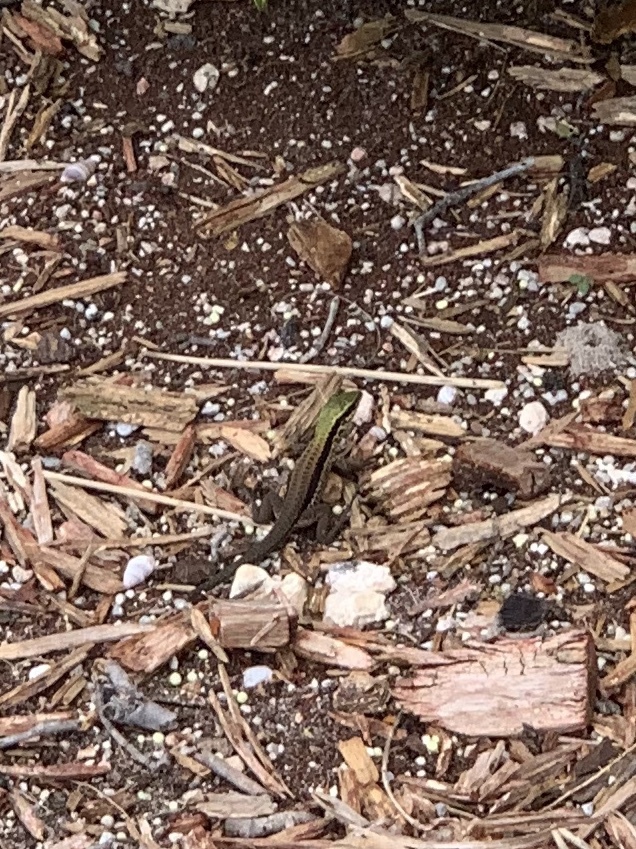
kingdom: Animalia
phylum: Chordata
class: Squamata
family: Teiidae
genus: Ameiva
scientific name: Ameiva ameiva
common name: Giant ameiva
